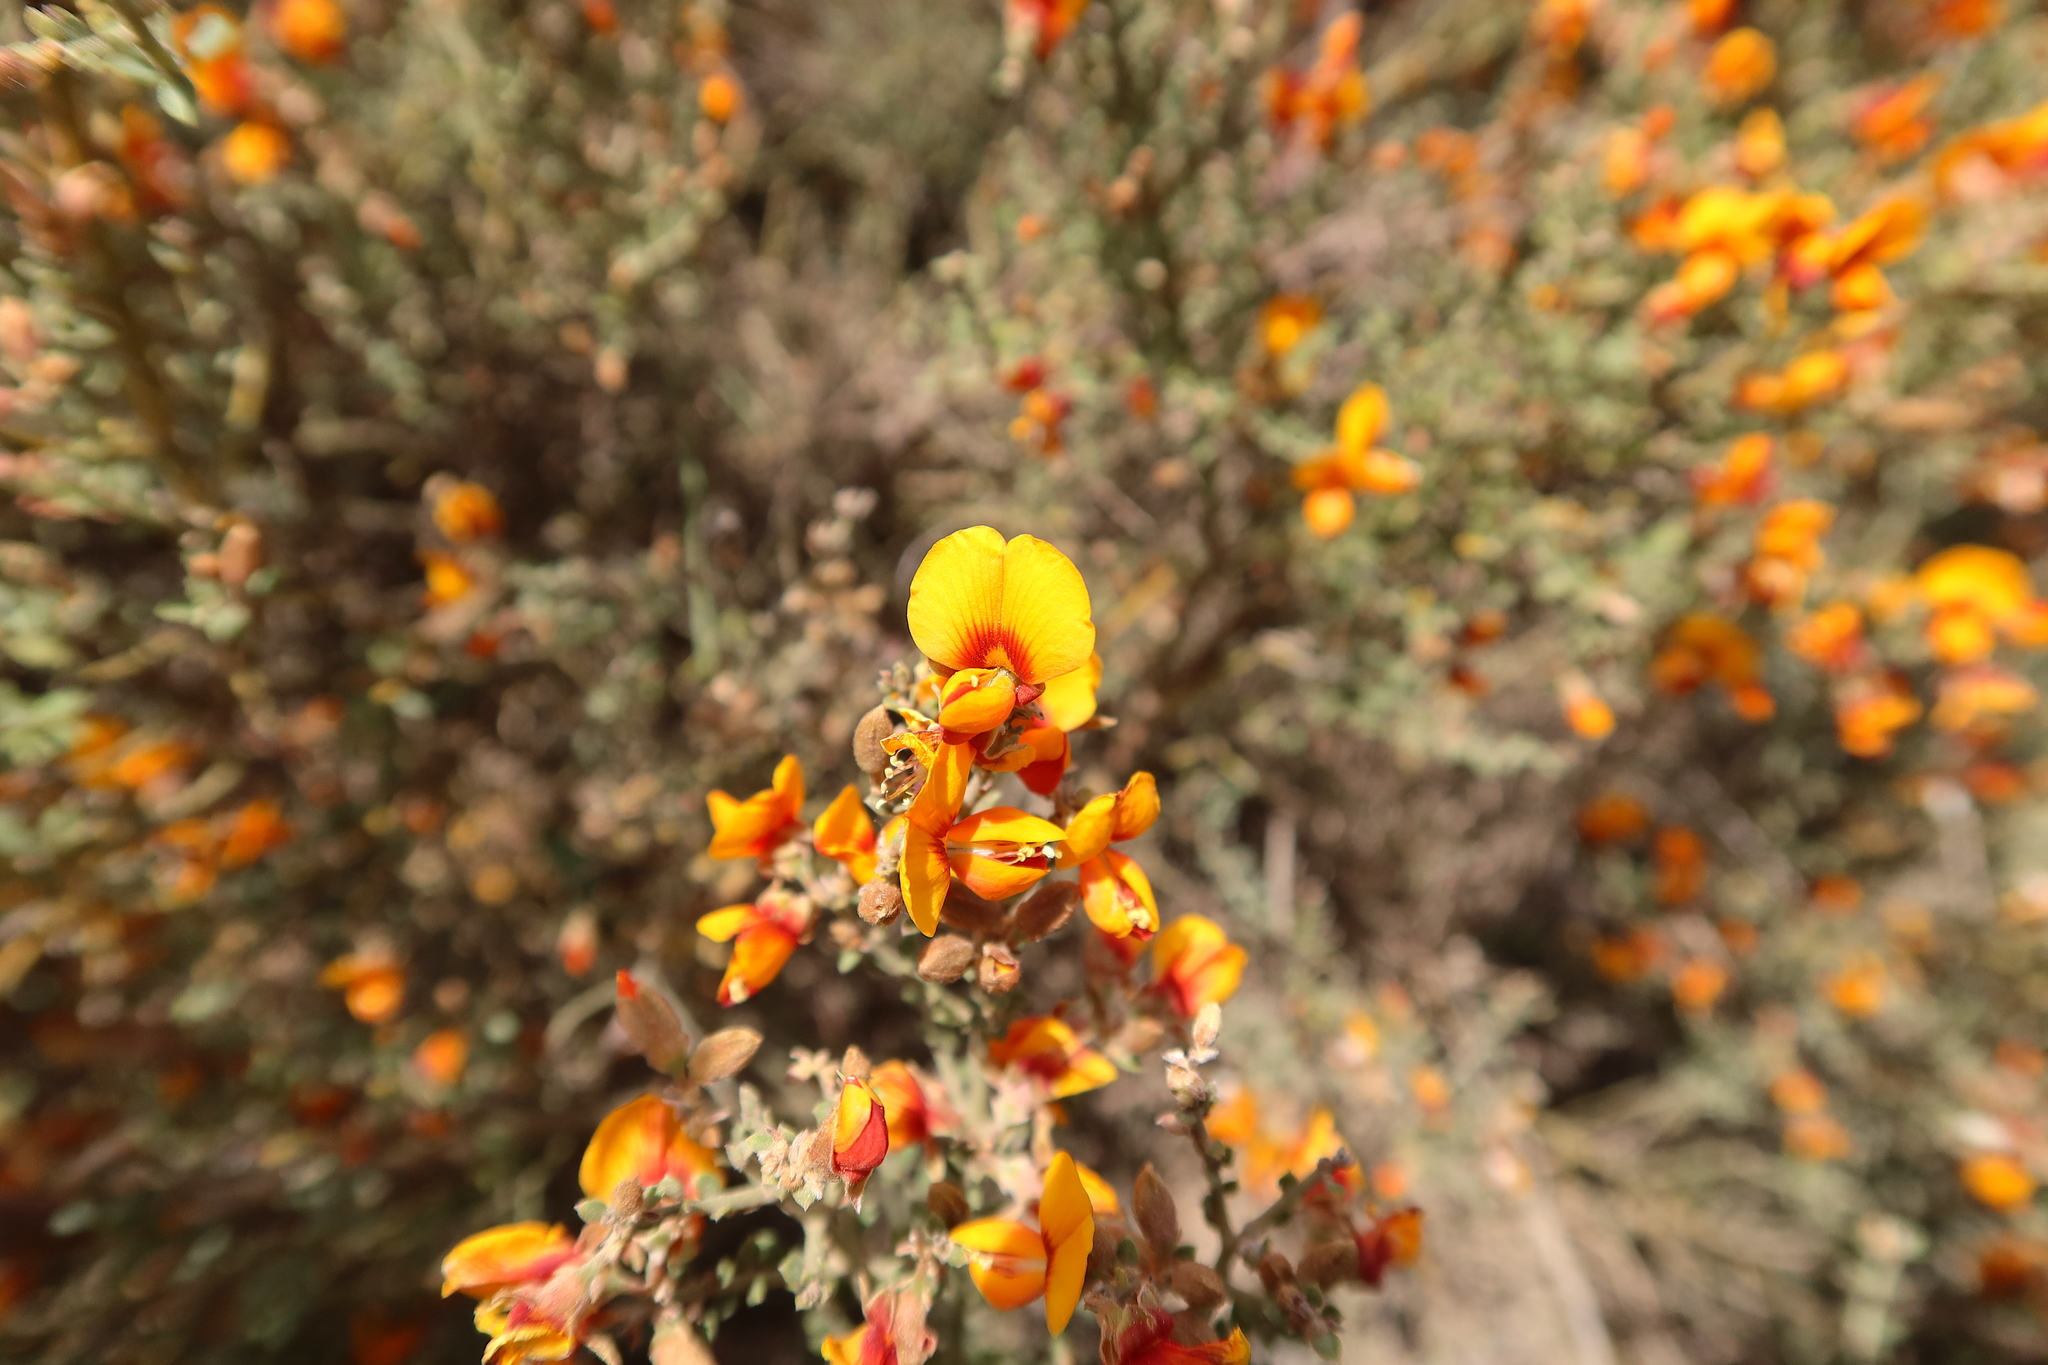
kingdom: Plantae
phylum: Tracheophyta
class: Magnoliopsida
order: Fabales
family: Fabaceae
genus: Oxylobium
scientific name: Oxylobium oxylobioides
